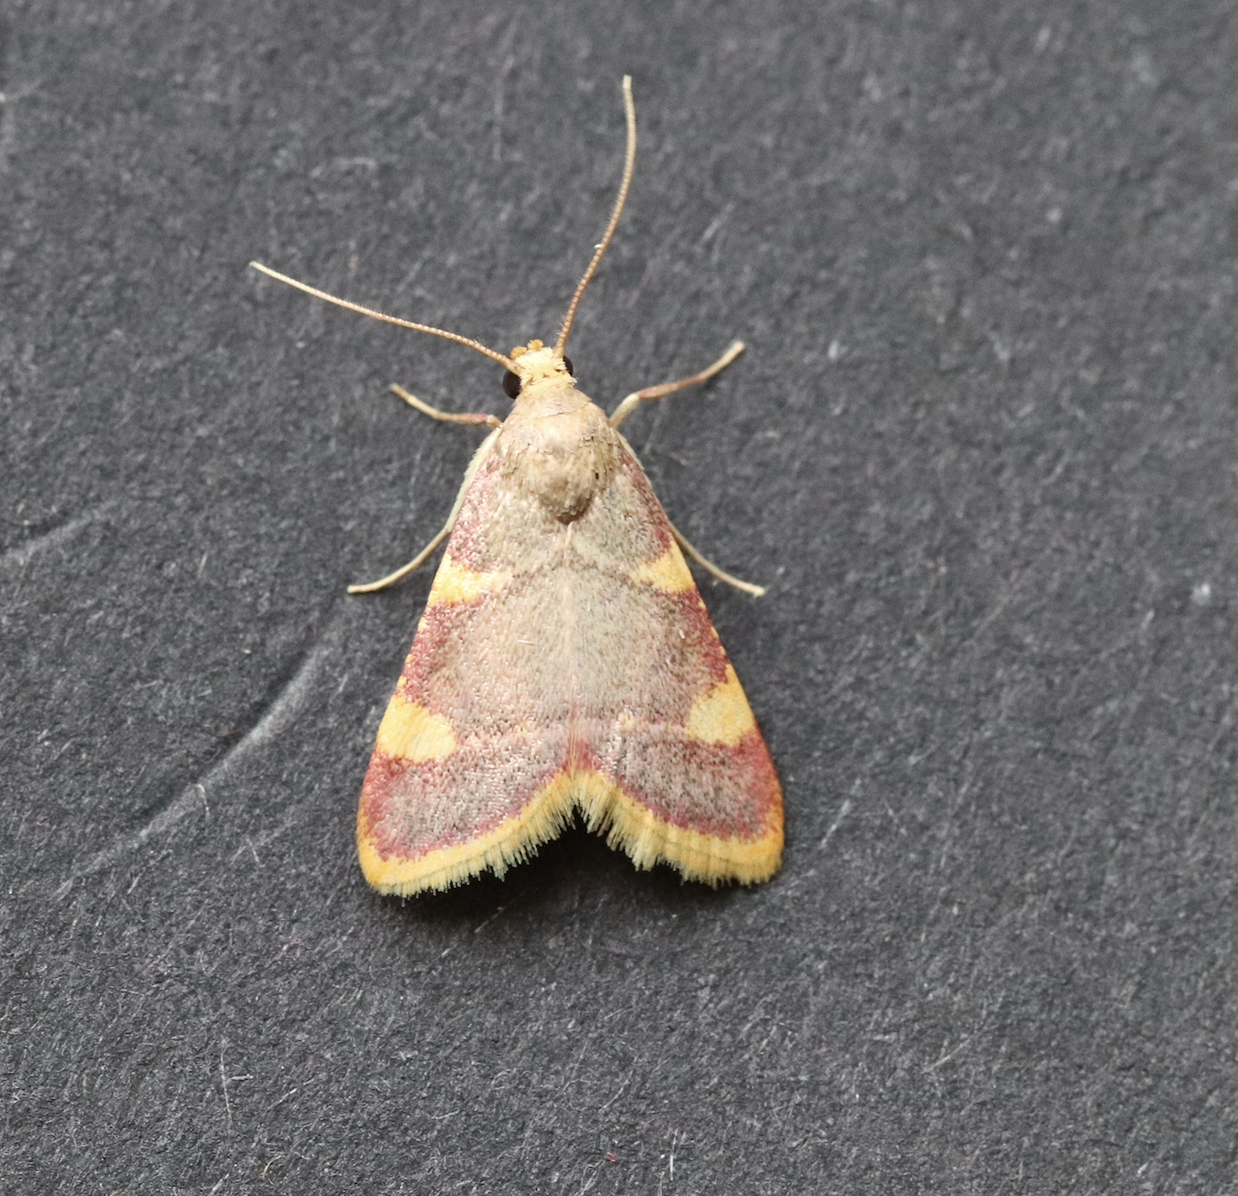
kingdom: Animalia
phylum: Arthropoda
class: Insecta
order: Lepidoptera
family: Pyralidae
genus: Hypsopygia
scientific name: Hypsopygia costalis
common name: Gold triangle
